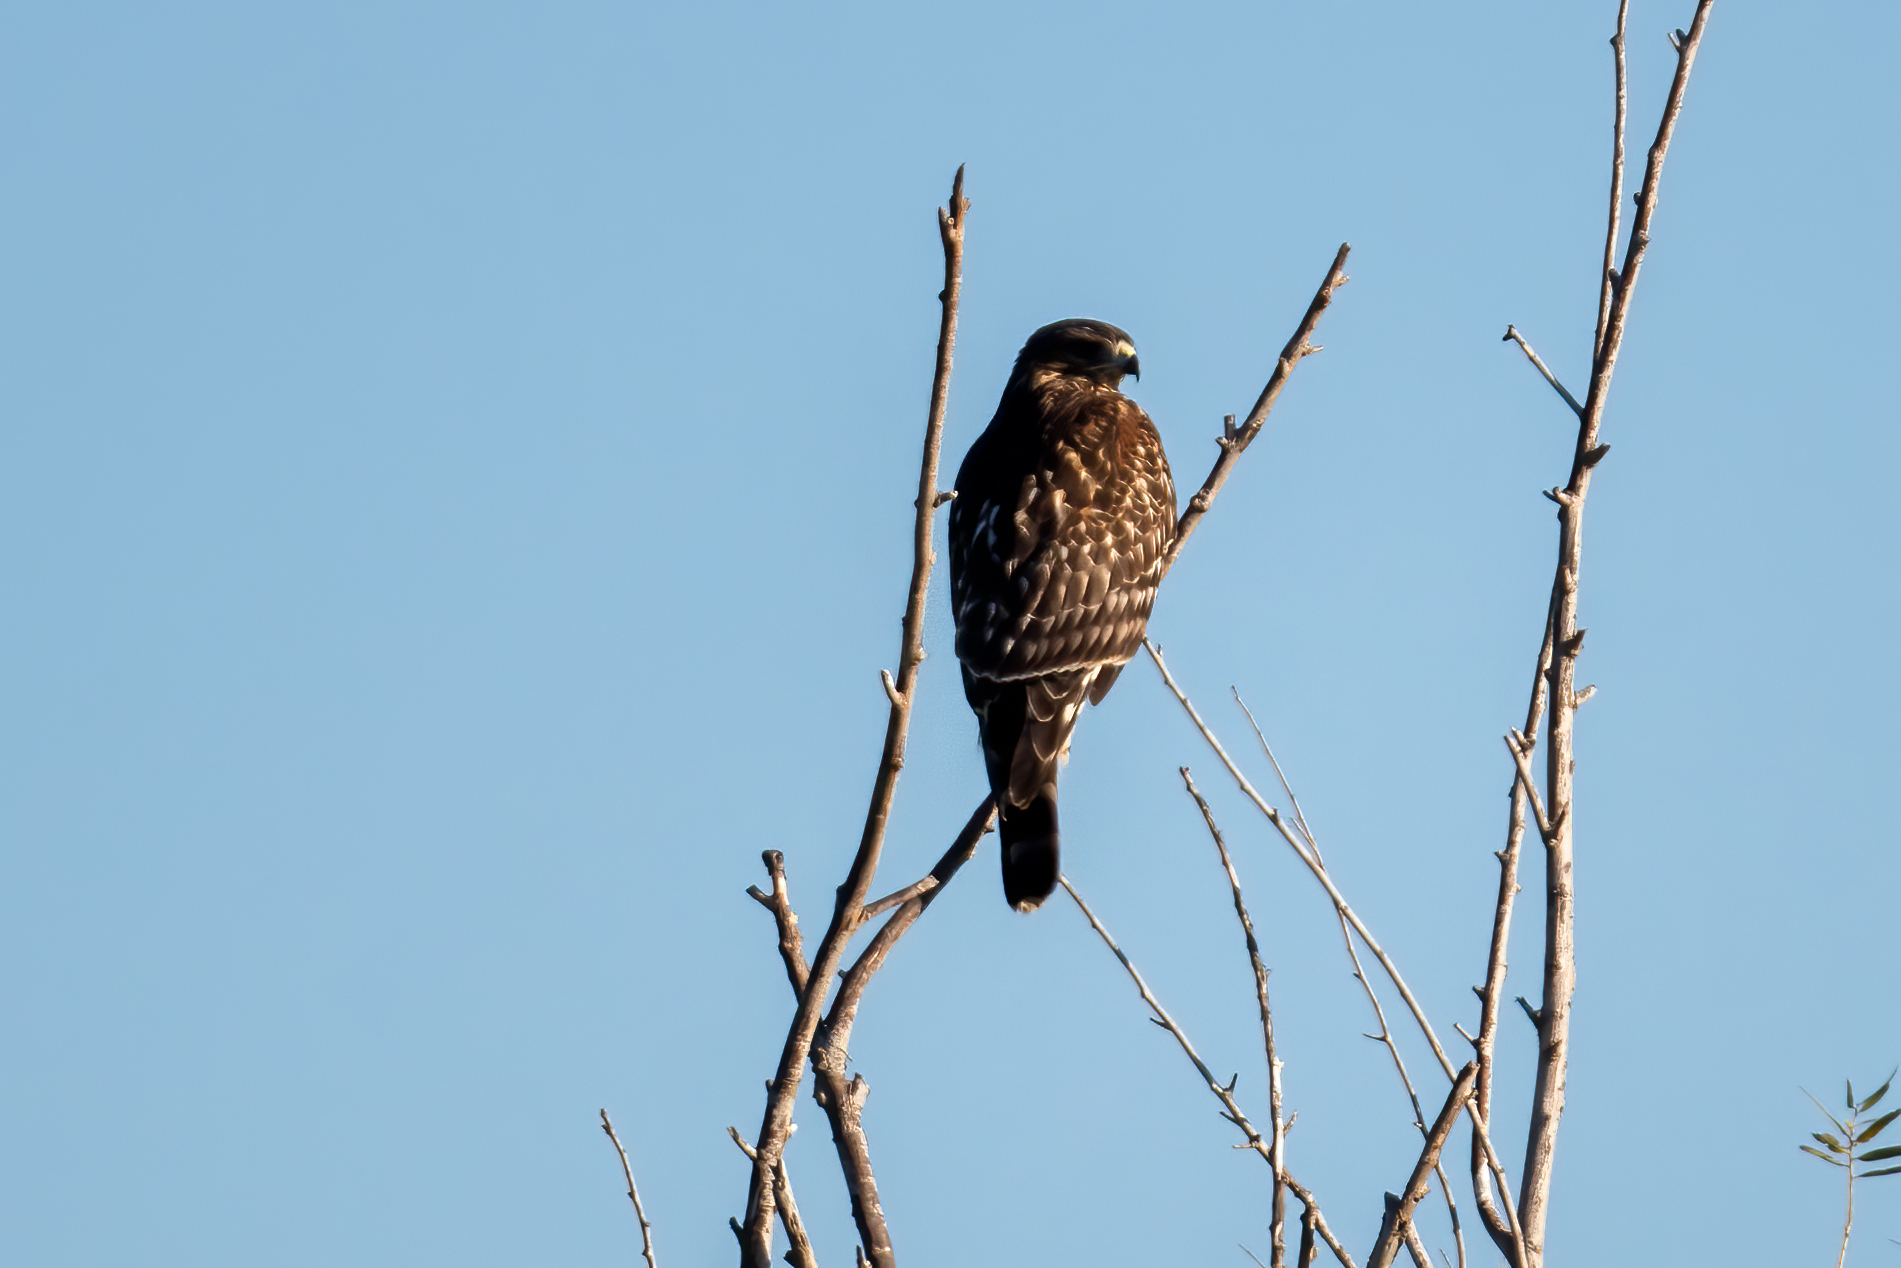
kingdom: Animalia
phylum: Chordata
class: Aves
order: Accipitriformes
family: Accipitridae
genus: Buteo
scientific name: Buteo lineatus
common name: Red-shouldered hawk
